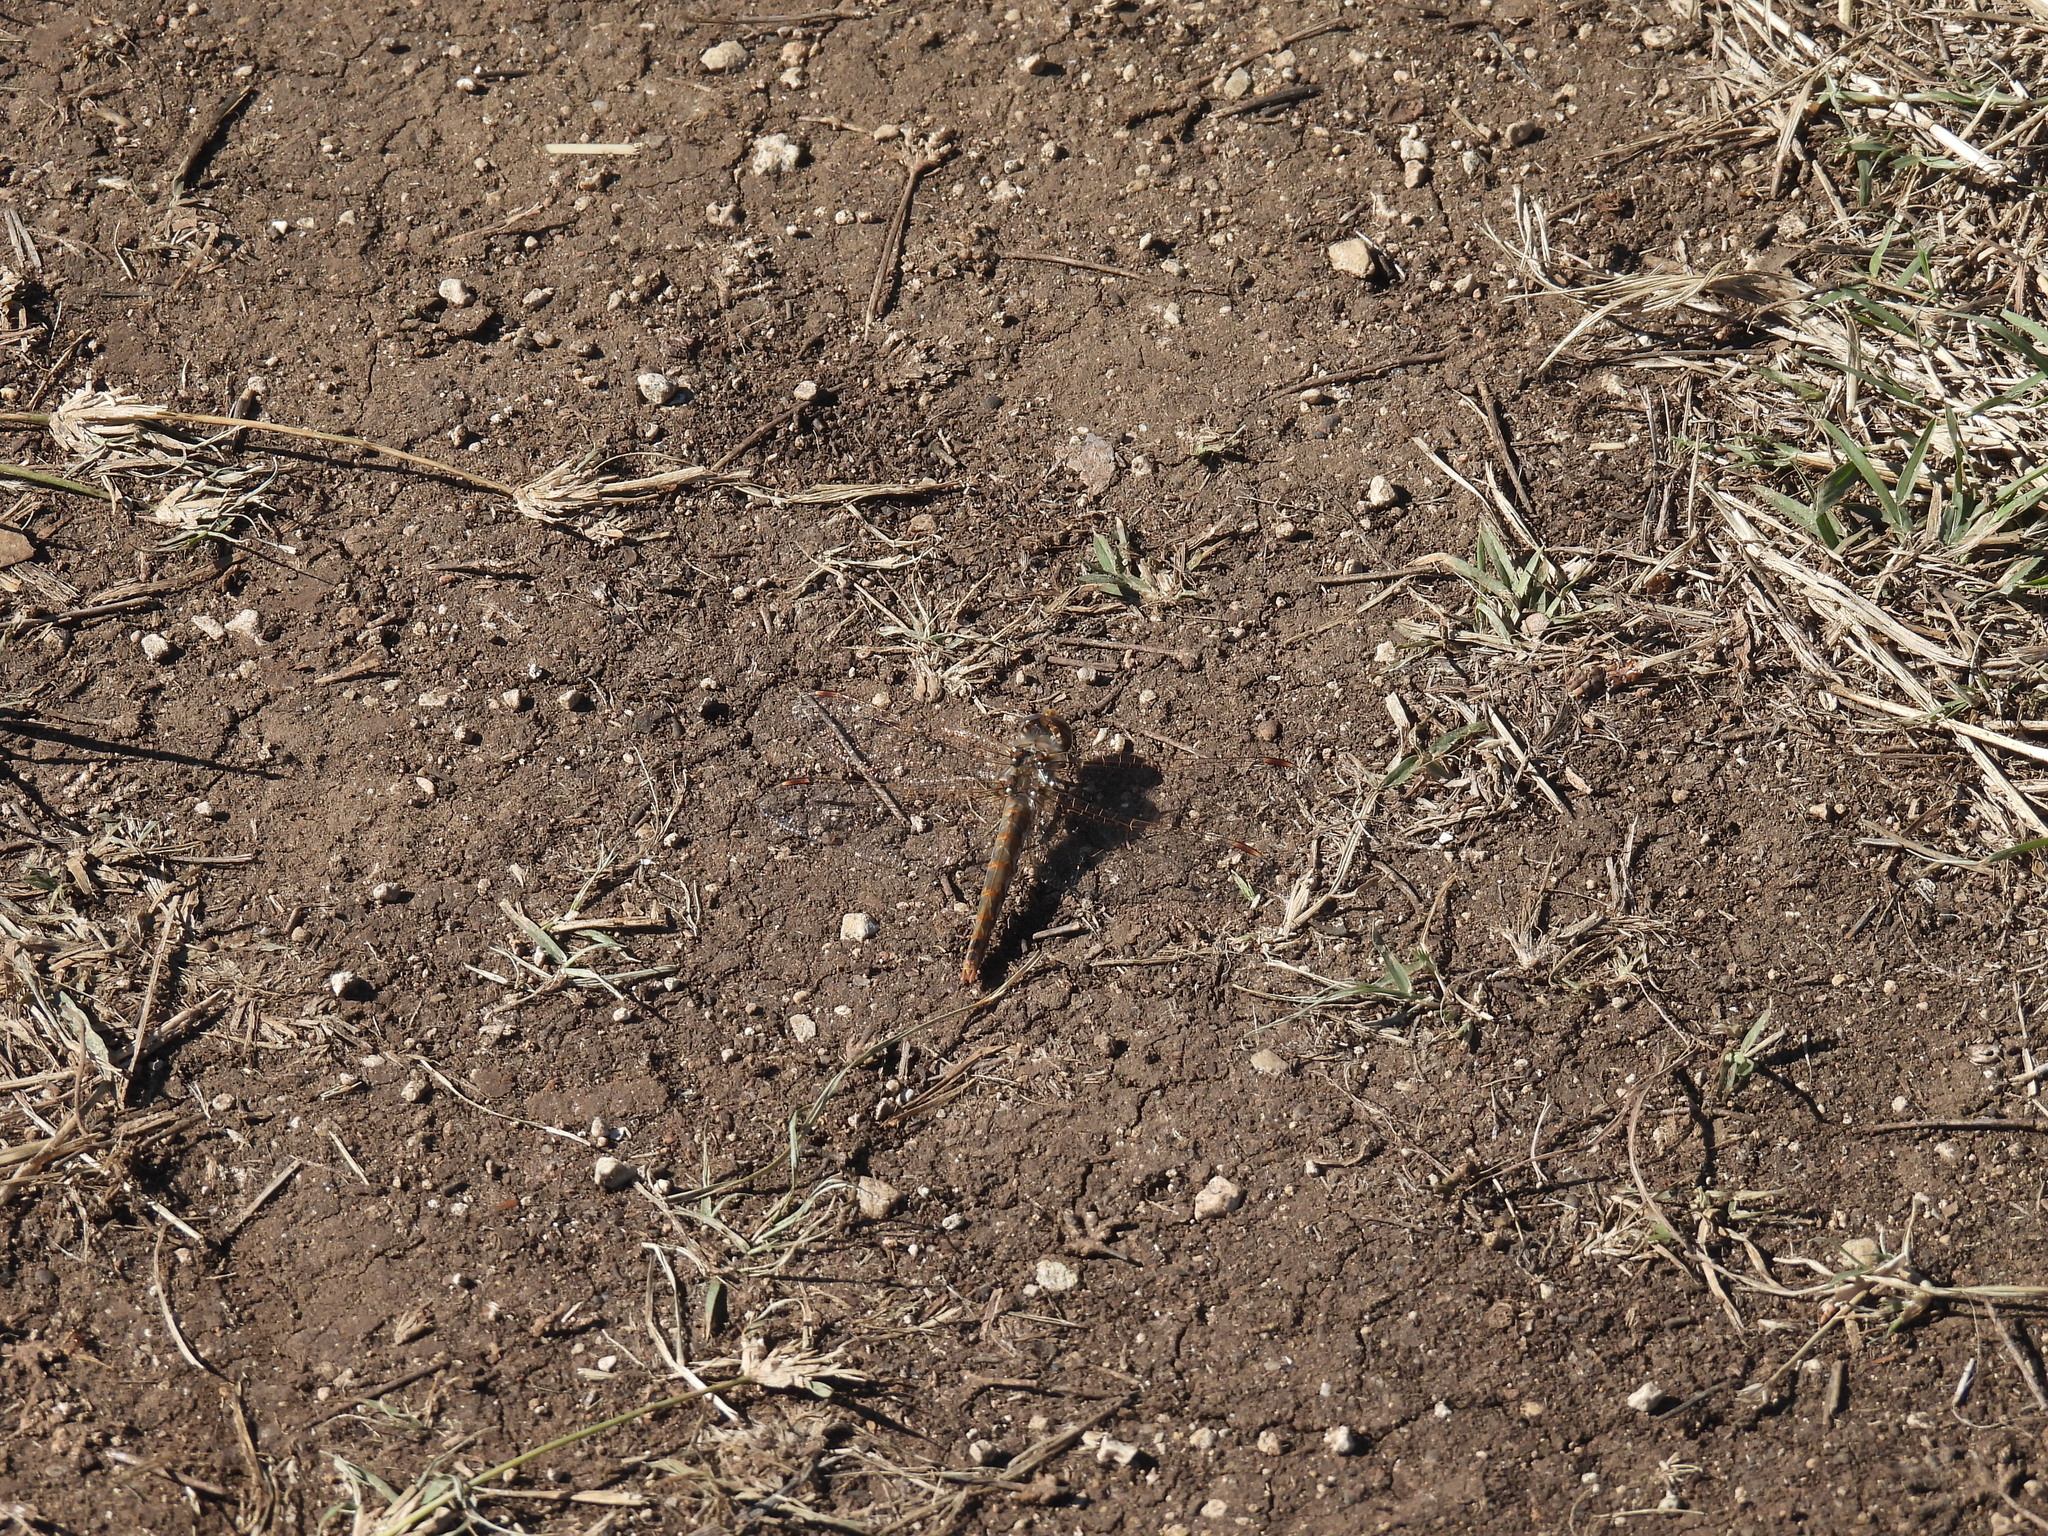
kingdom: Animalia
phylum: Arthropoda
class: Insecta
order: Odonata
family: Libellulidae
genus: Sympetrum
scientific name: Sympetrum corruptum
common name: Variegated meadowhawk
